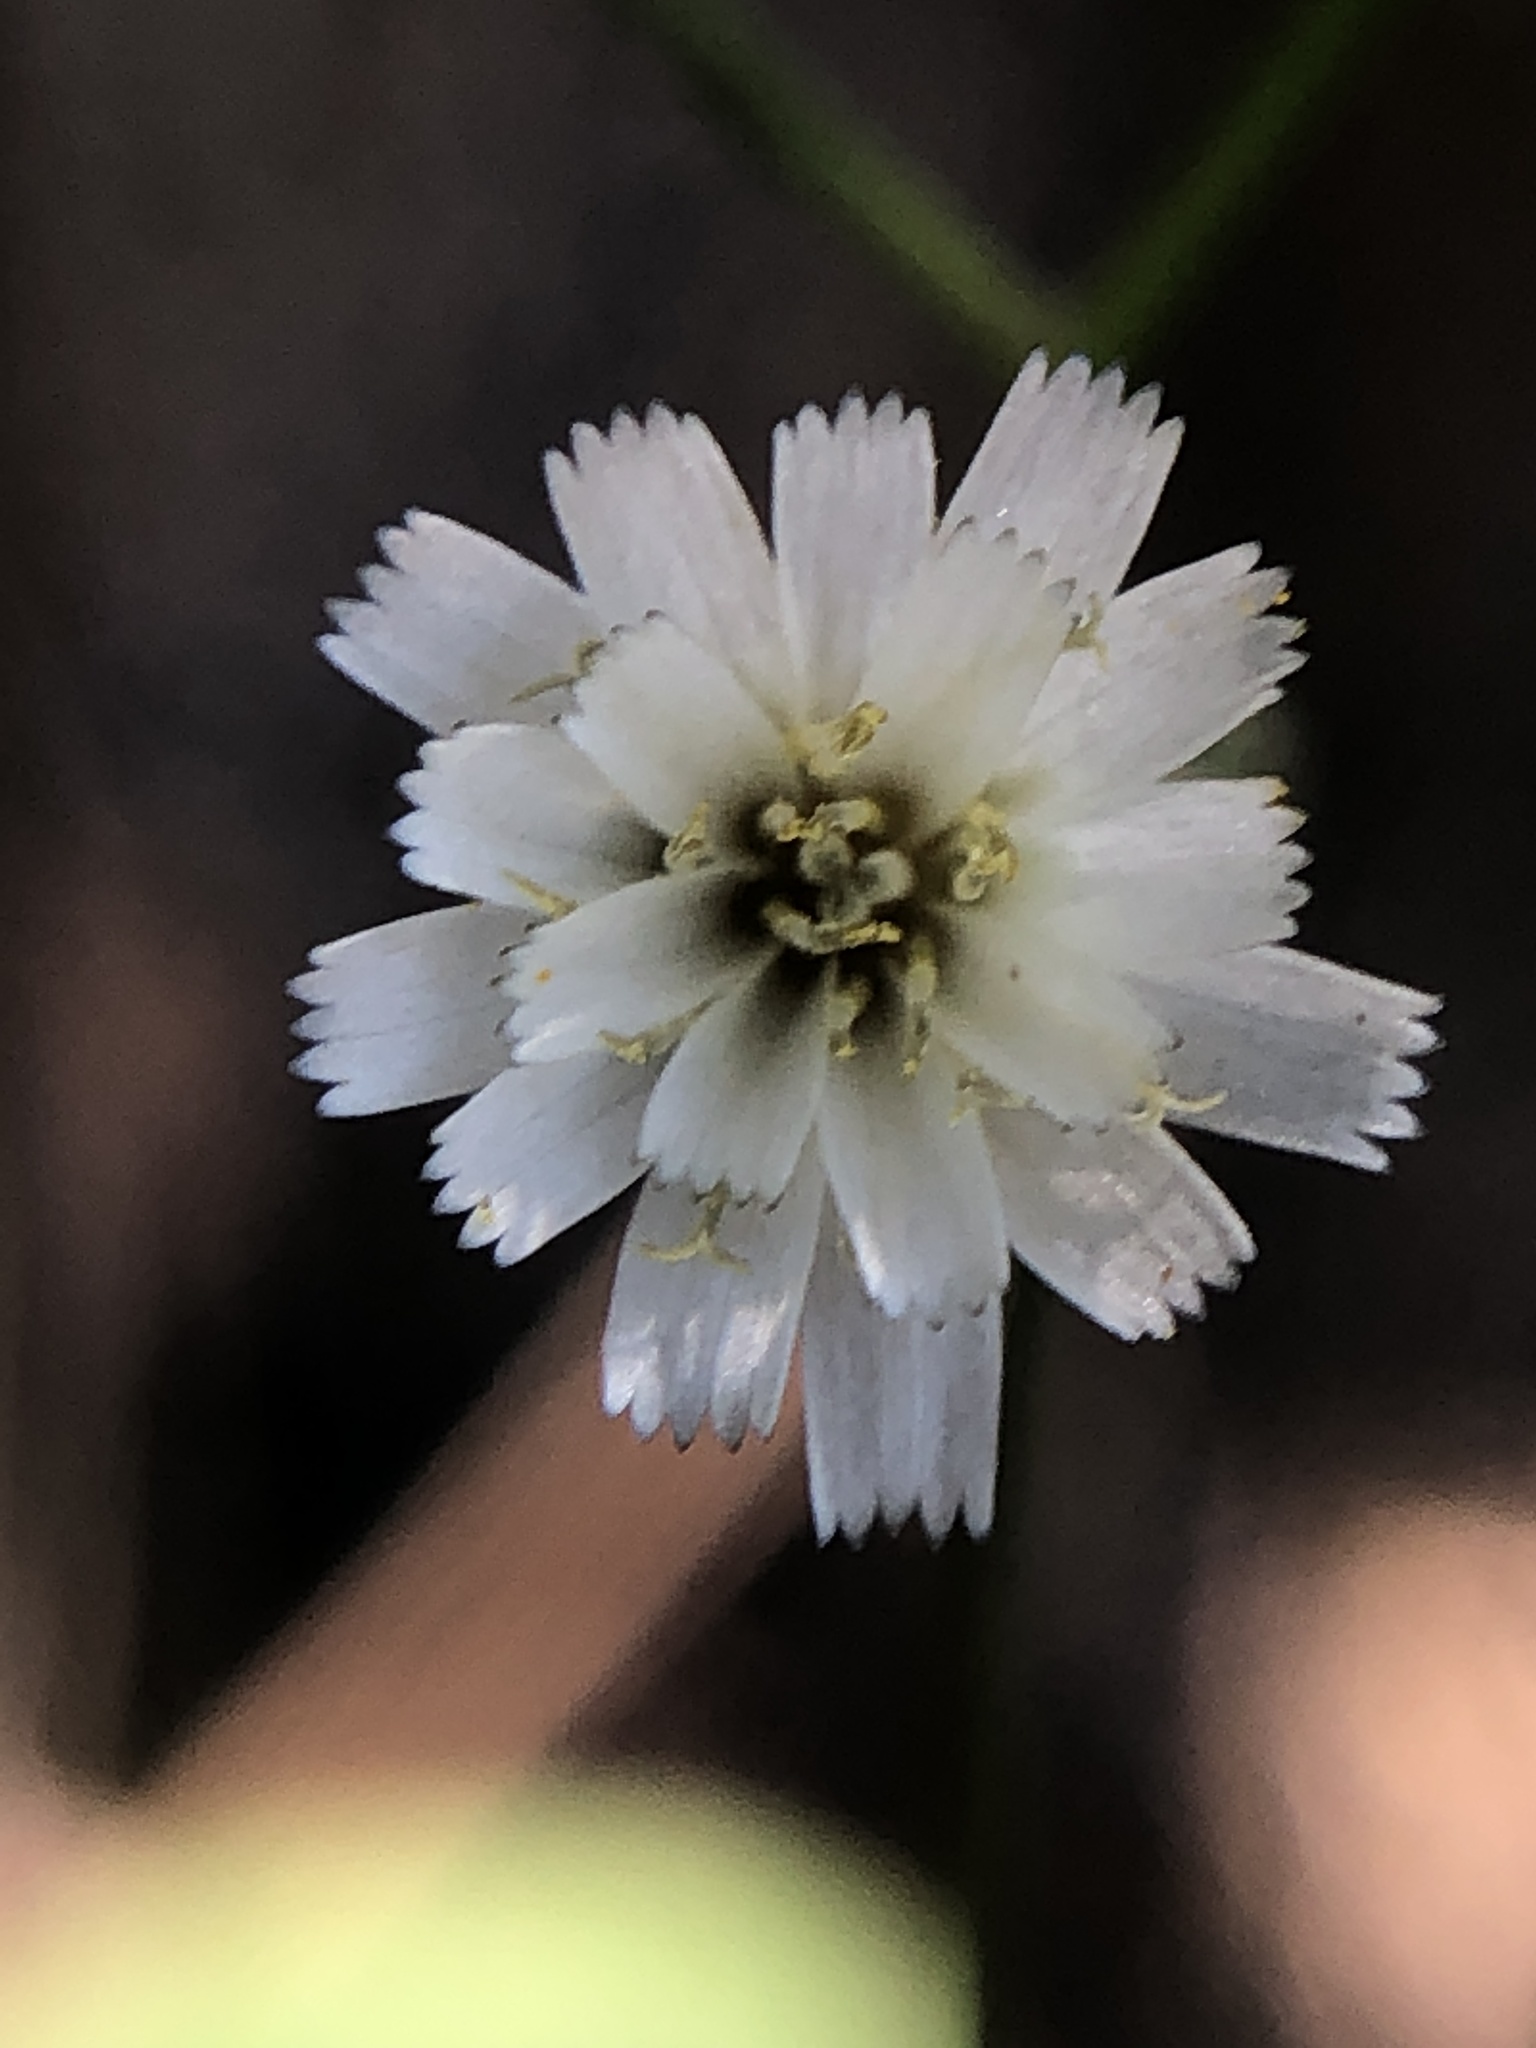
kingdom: Plantae
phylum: Tracheophyta
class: Magnoliopsida
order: Asterales
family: Asteraceae
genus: Hieracium
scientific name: Hieracium albiflorum
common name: White hawkweed
